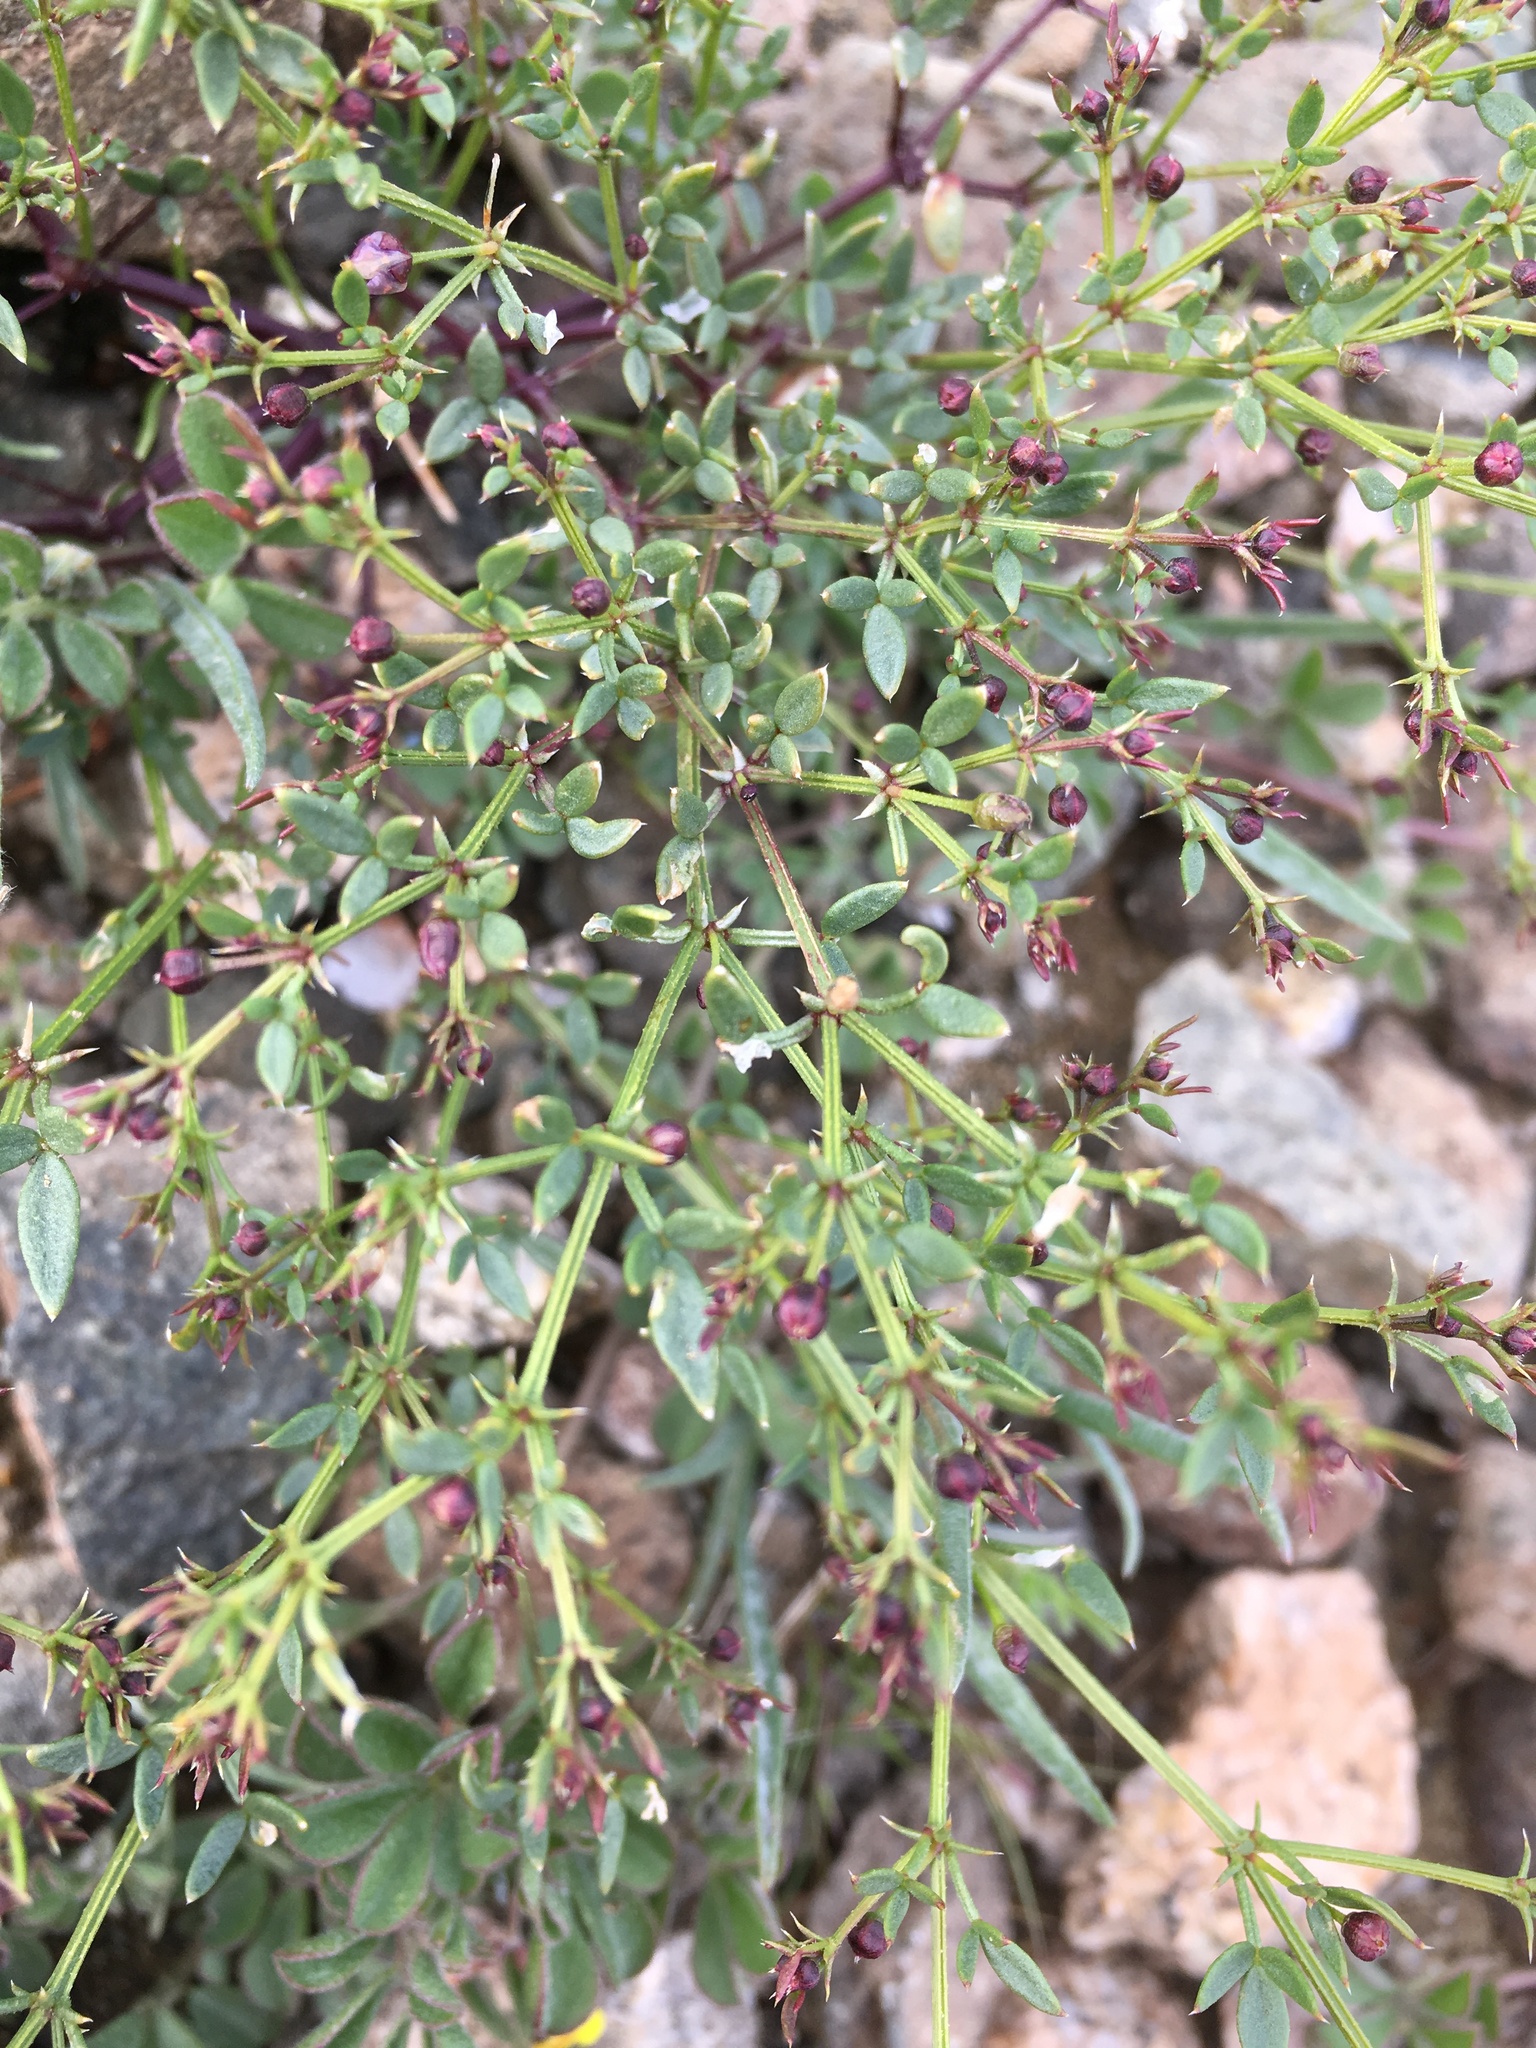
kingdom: Plantae
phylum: Tracheophyta
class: Magnoliopsida
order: Zygophyllales
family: Zygophyllaceae
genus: Fagonia
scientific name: Fagonia laevis
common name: California fagonbush
